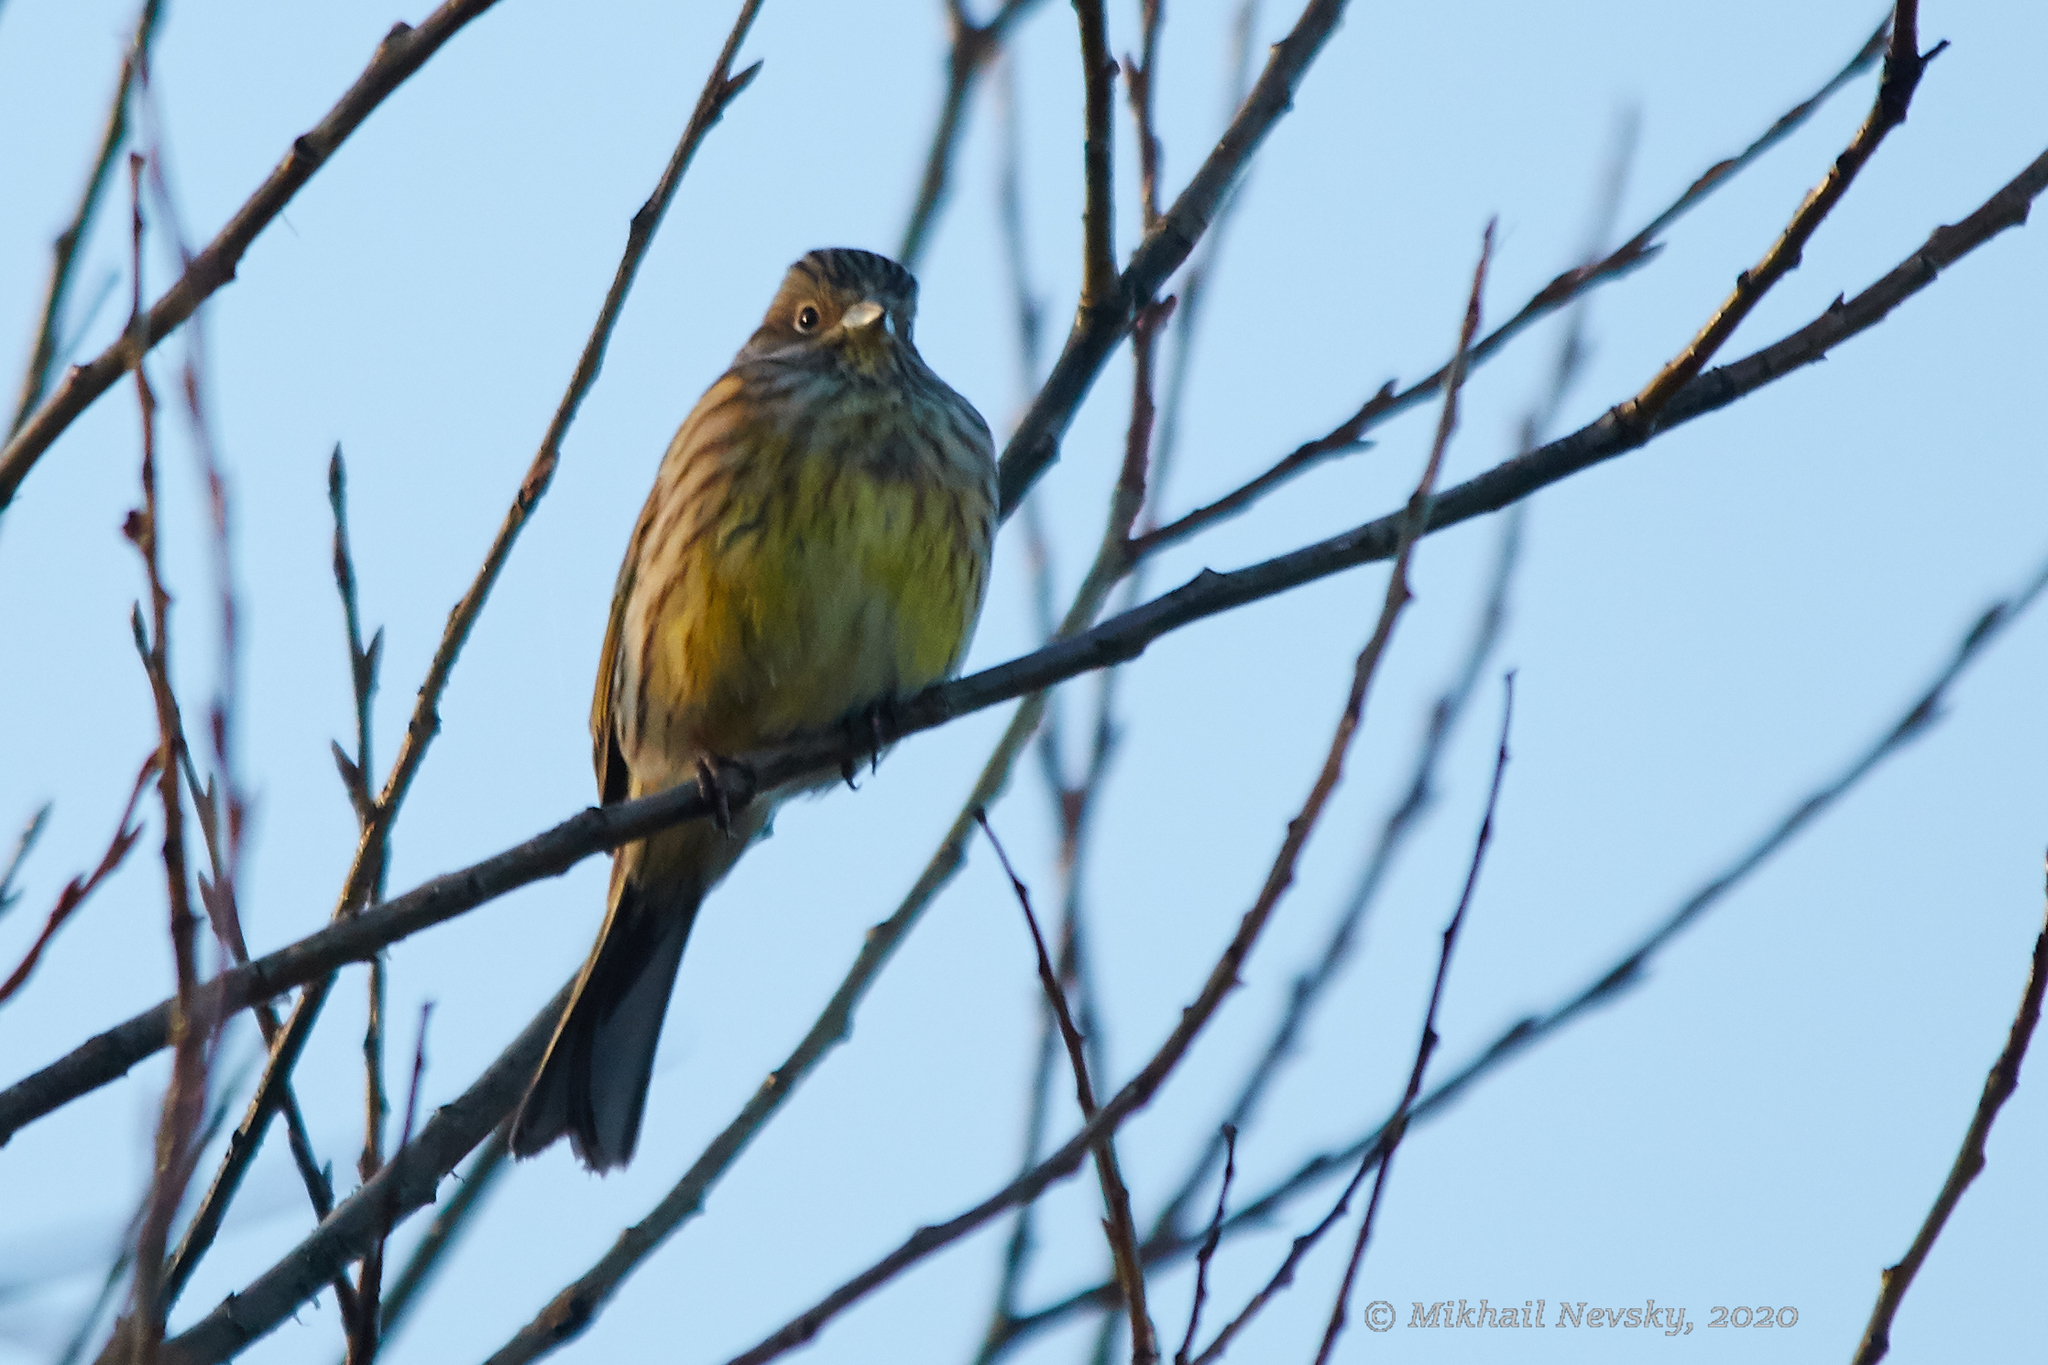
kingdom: Animalia
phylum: Chordata
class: Aves
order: Passeriformes
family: Emberizidae
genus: Emberiza
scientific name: Emberiza citrinella
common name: Yellowhammer
